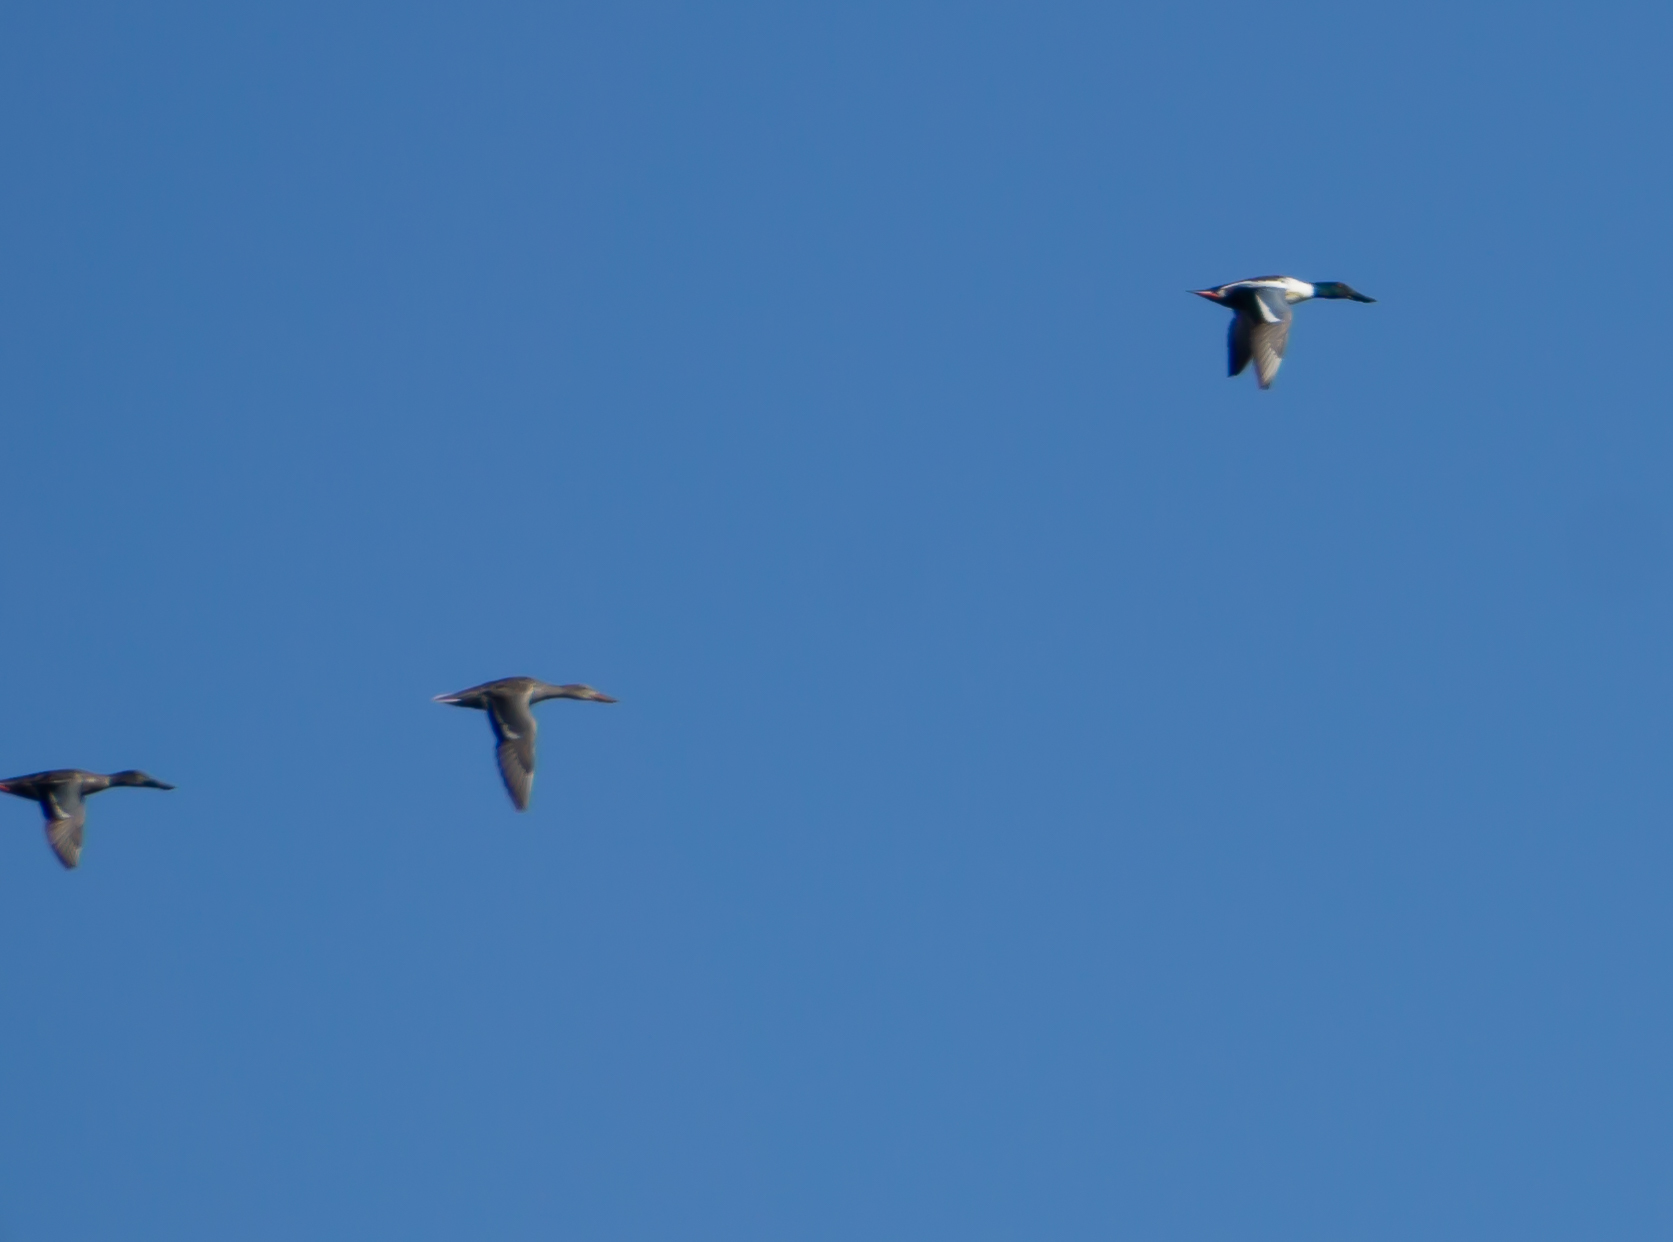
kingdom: Animalia
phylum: Chordata
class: Aves
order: Anseriformes
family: Anatidae
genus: Spatula
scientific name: Spatula clypeata
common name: Northern shoveler
